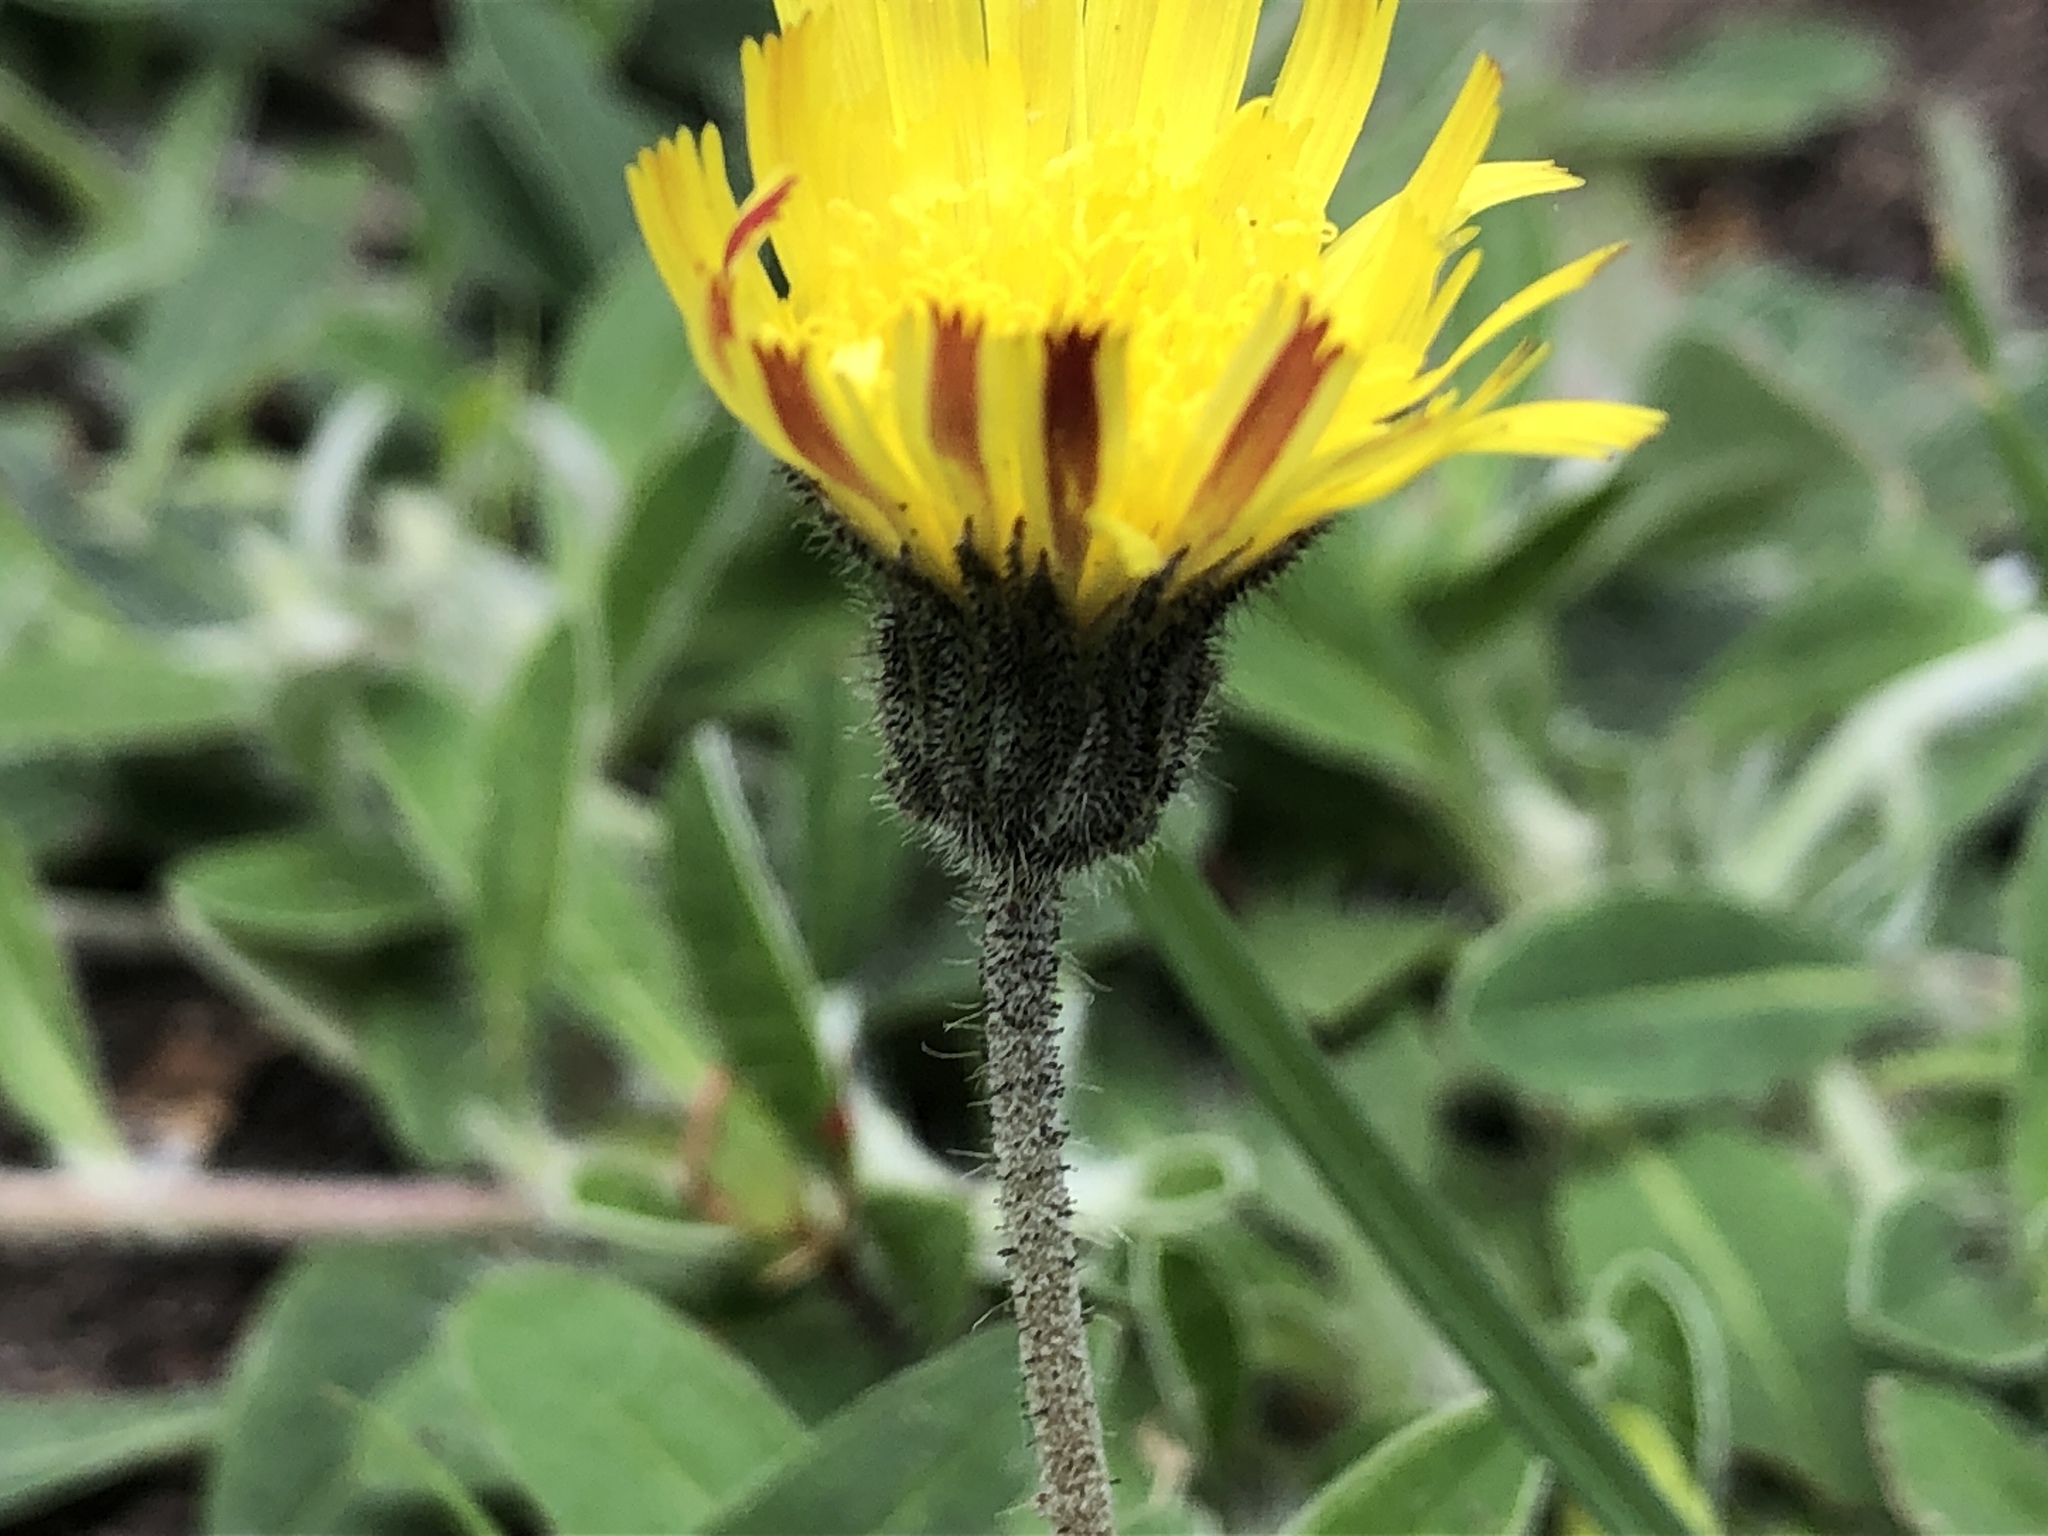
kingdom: Plantae
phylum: Tracheophyta
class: Magnoliopsida
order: Asterales
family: Asteraceae
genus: Pilosella
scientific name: Pilosella officinarum
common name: Mouse-ear hawkweed
